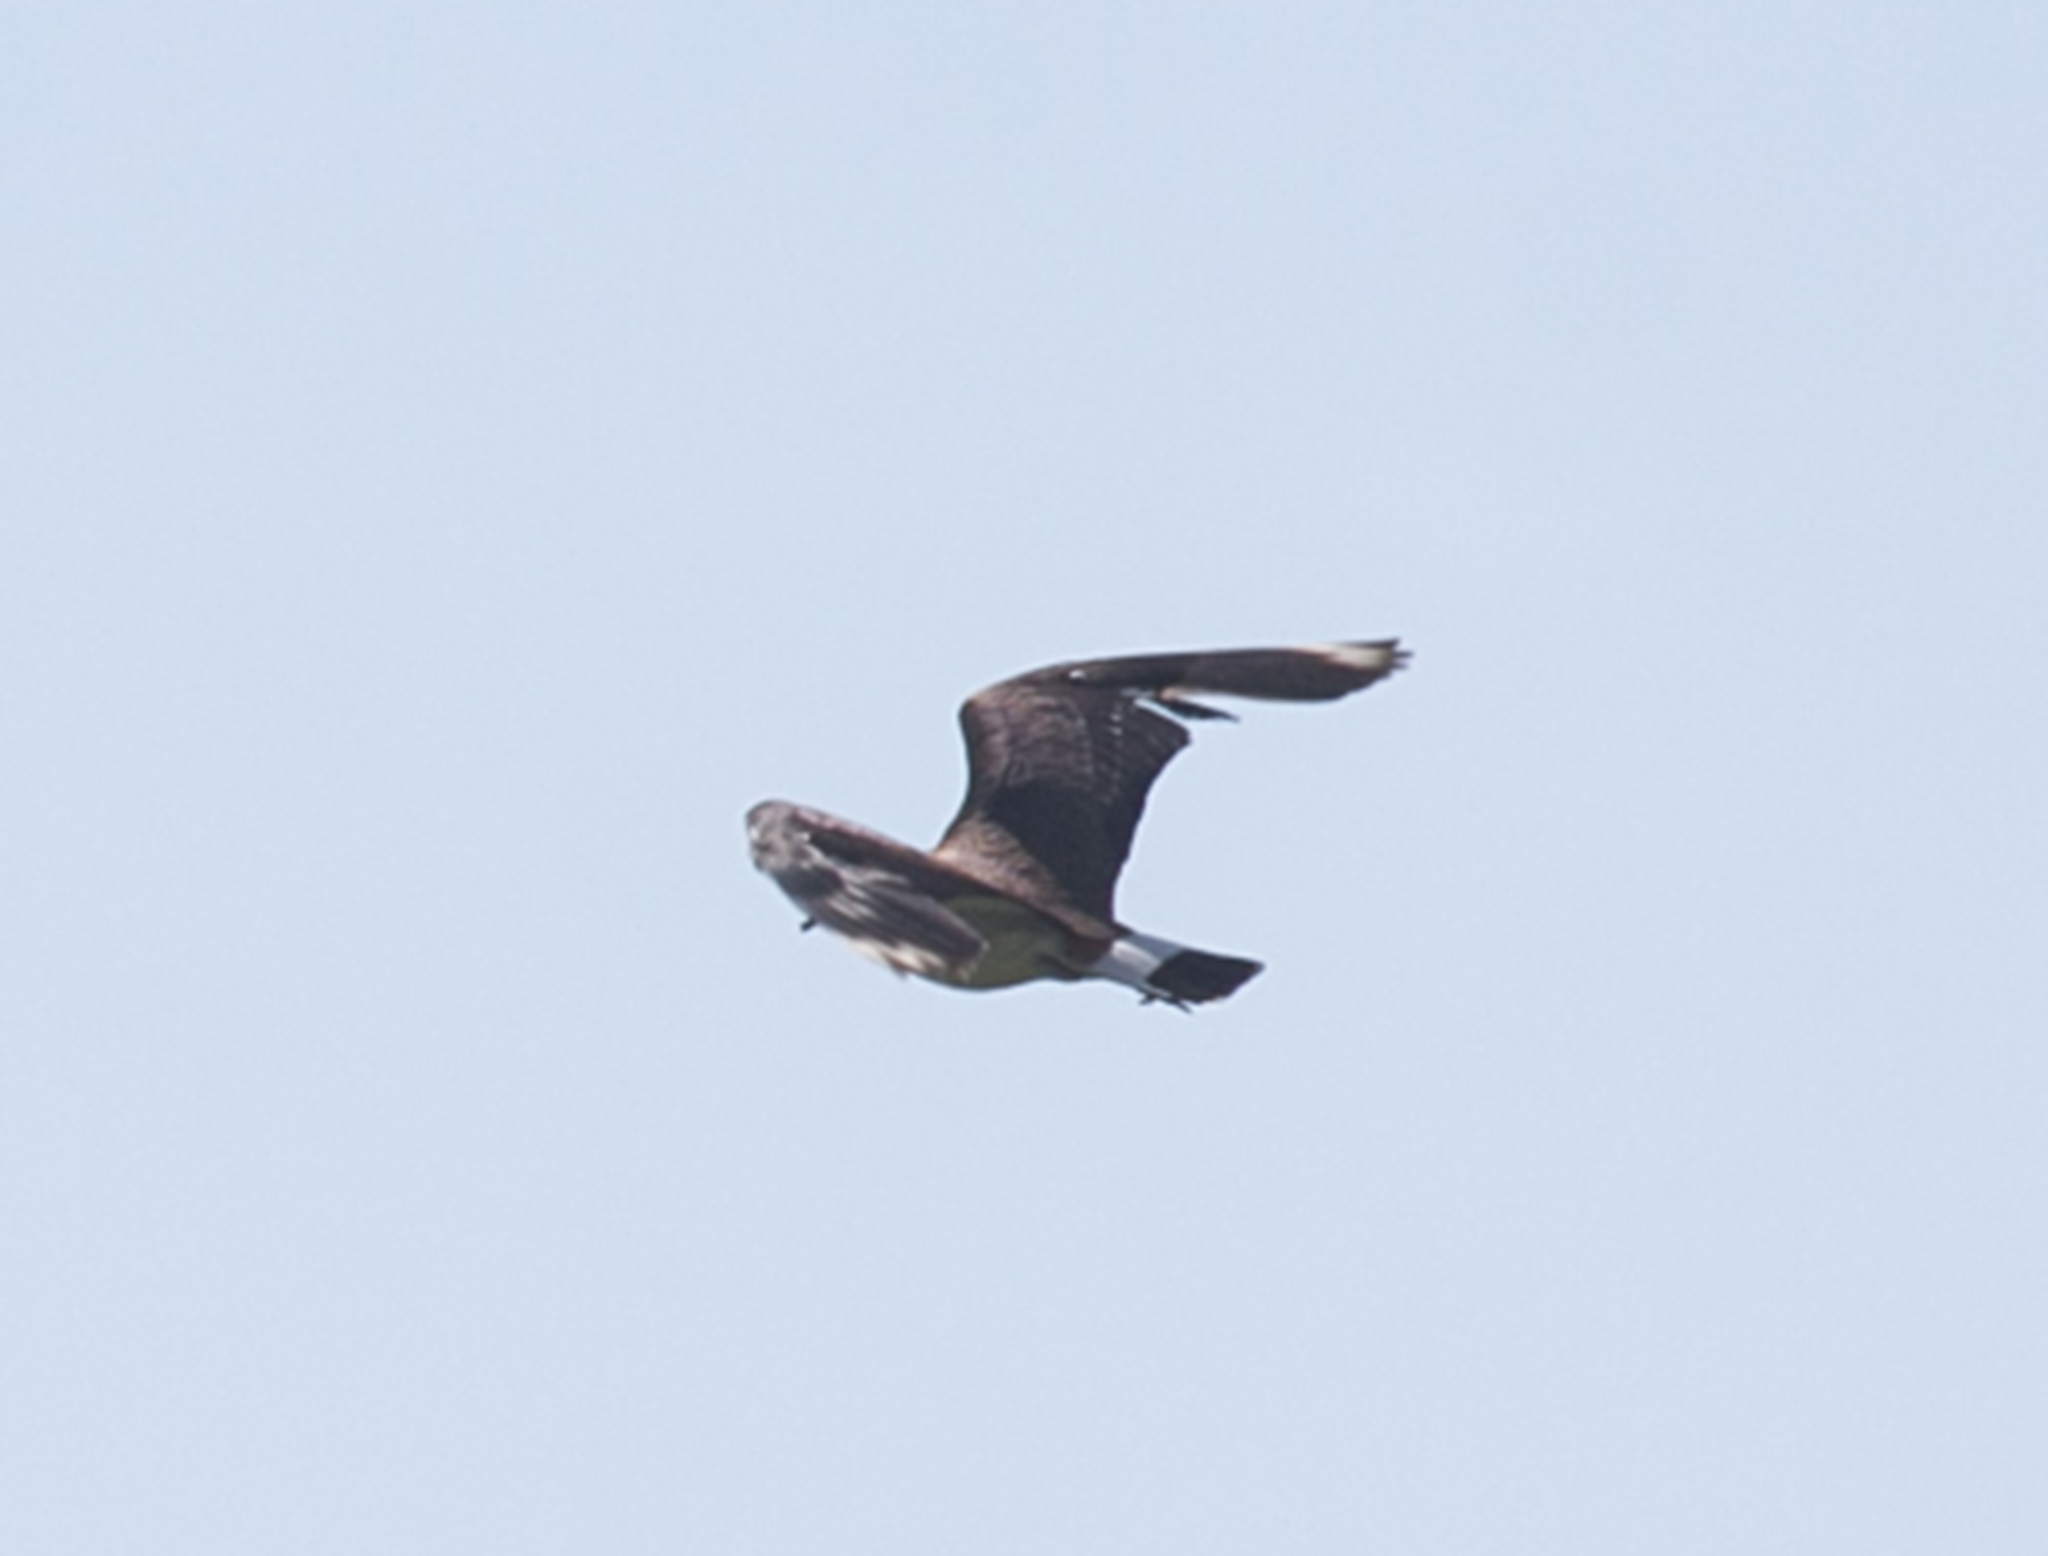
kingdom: Animalia
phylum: Chordata
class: Aves
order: Charadriiformes
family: Charadriidae
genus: Vanellus
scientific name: Vanellus vanellus
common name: Northern lapwing
